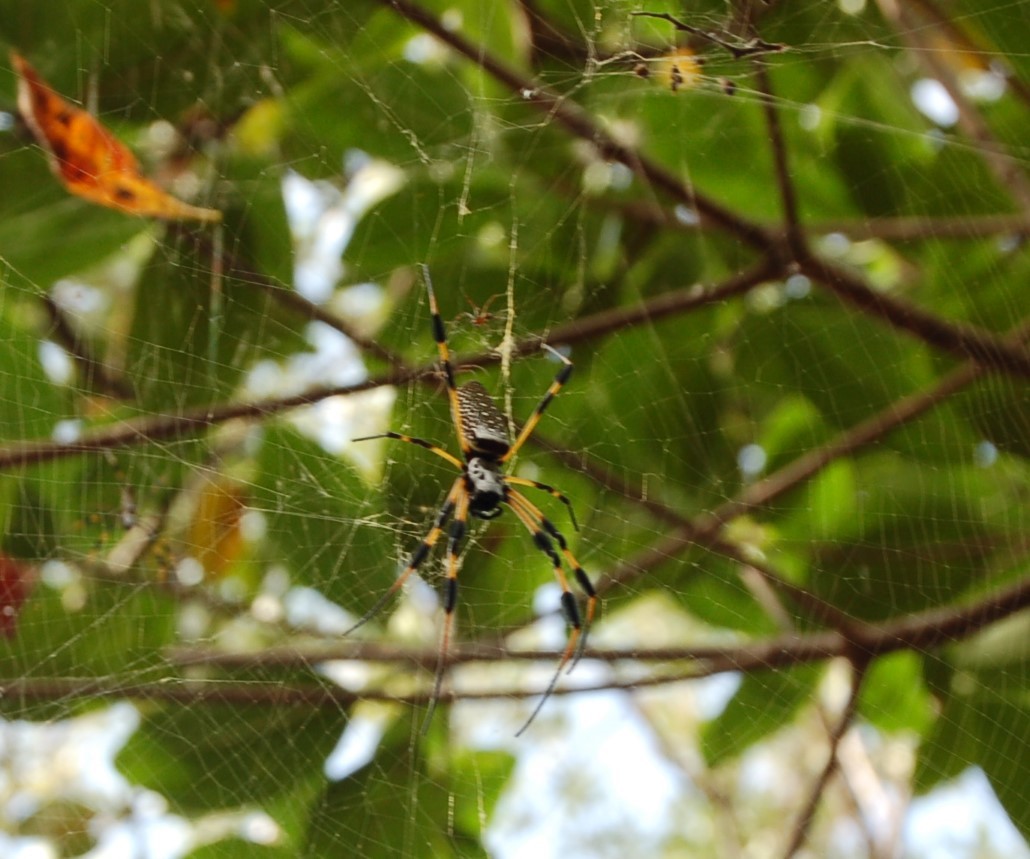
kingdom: Animalia
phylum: Arthropoda
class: Arachnida
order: Araneae
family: Araneidae
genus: Trichonephila
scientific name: Trichonephila clavipes
